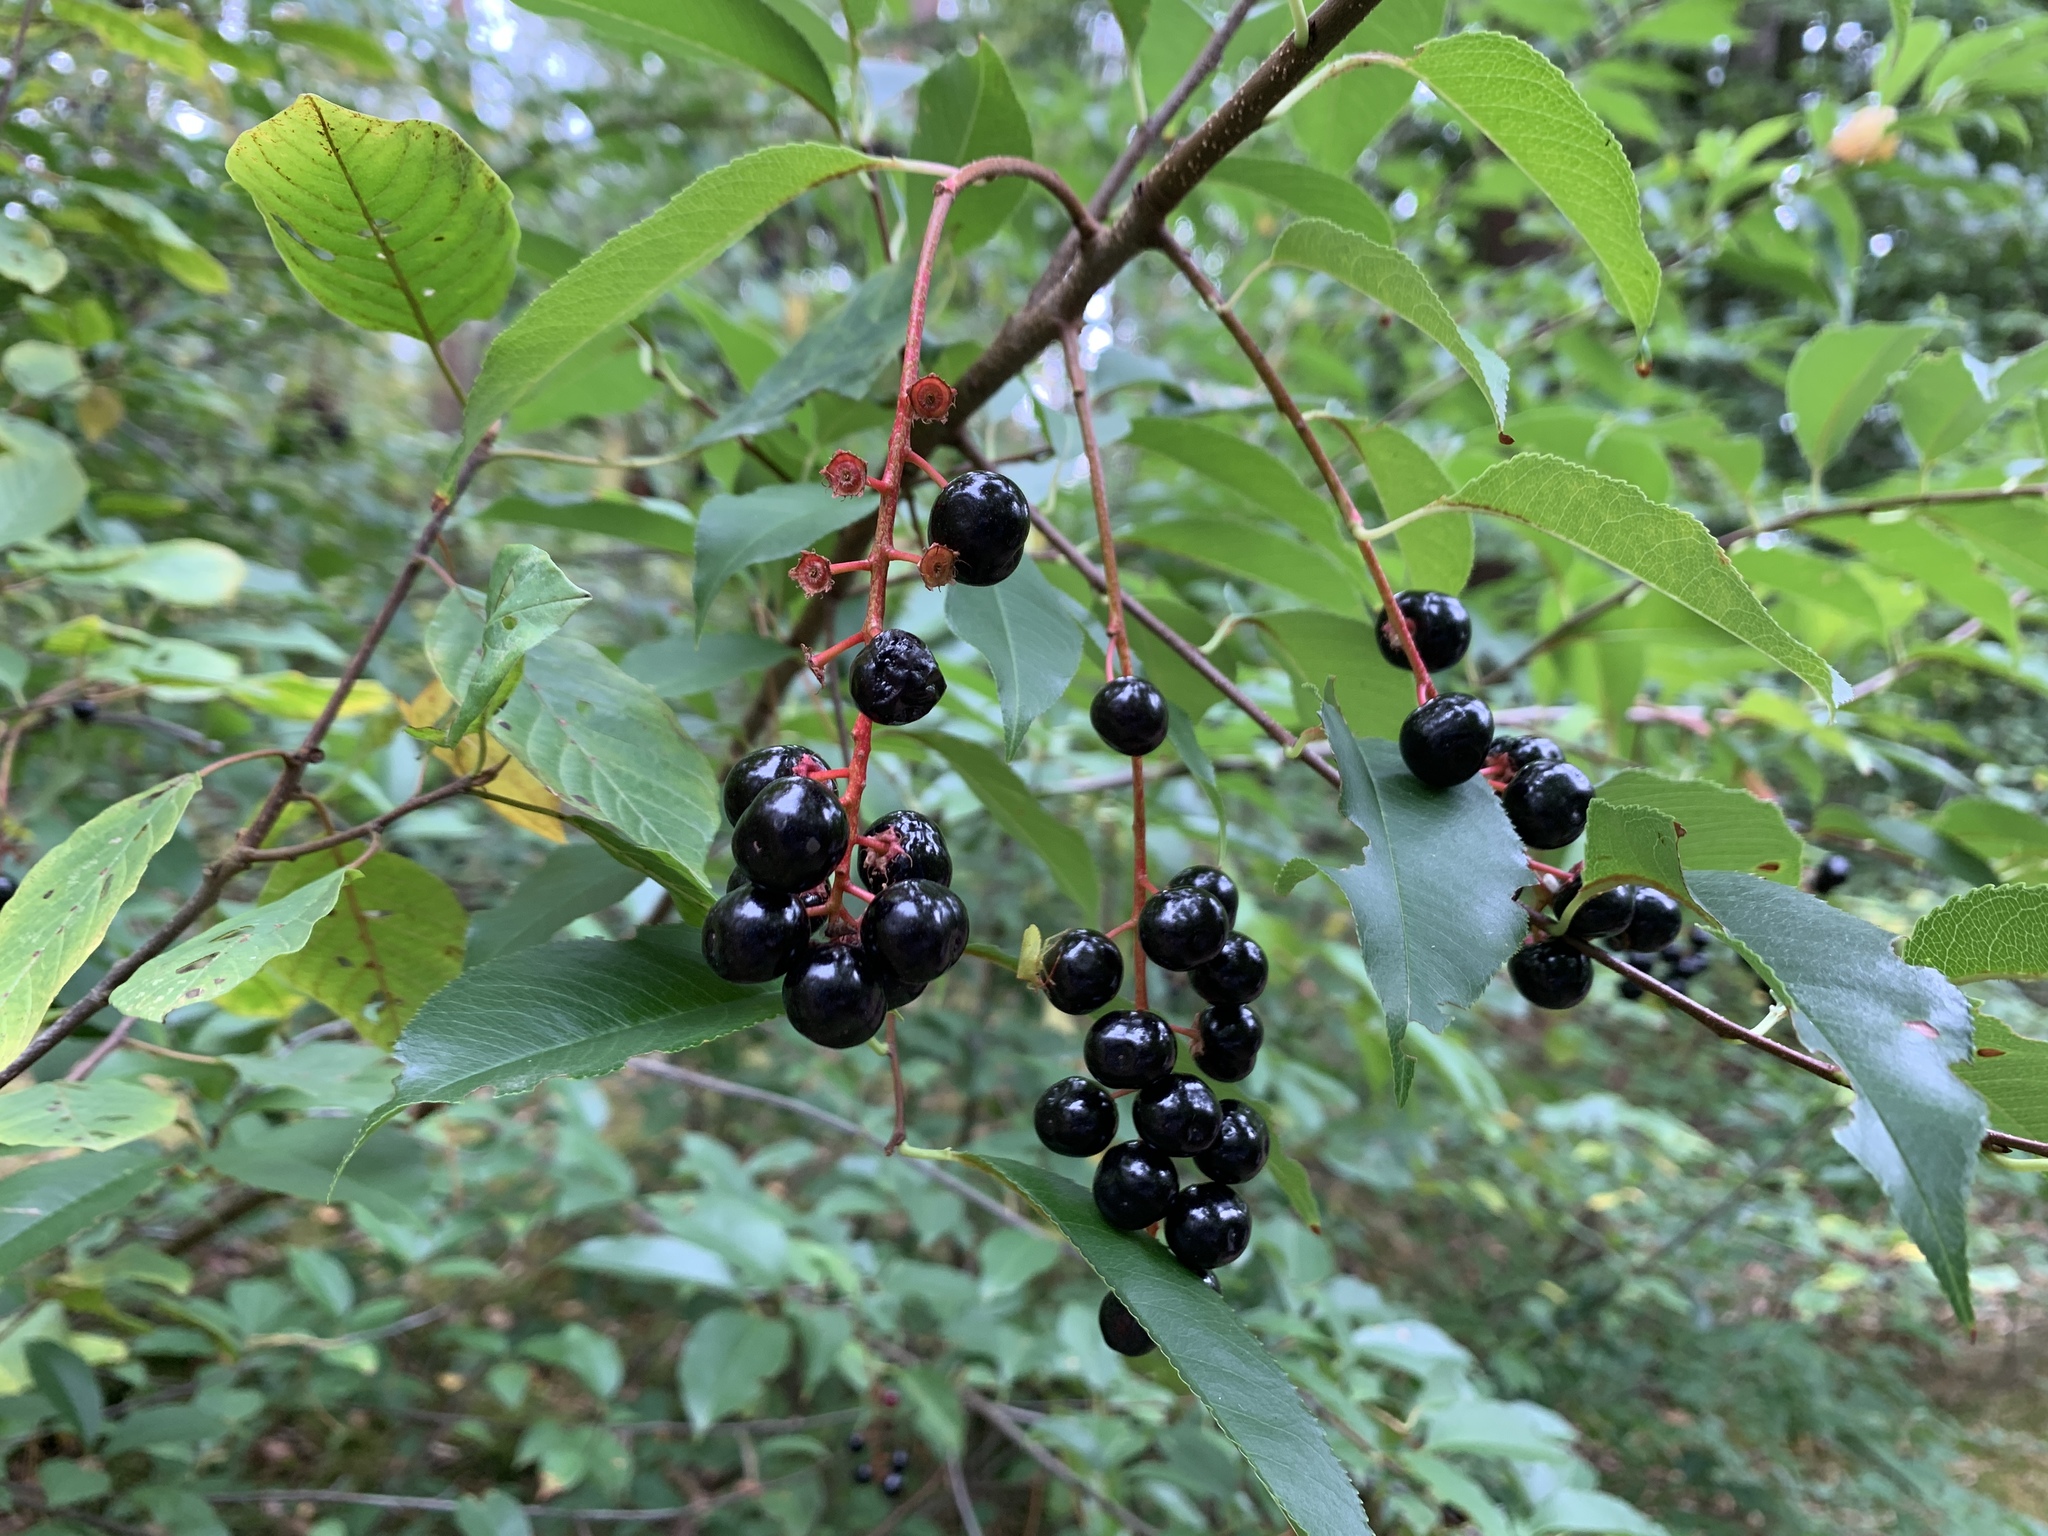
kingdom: Plantae
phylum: Tracheophyta
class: Magnoliopsida
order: Rosales
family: Rosaceae
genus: Prunus
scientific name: Prunus padus
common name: Bird cherry
